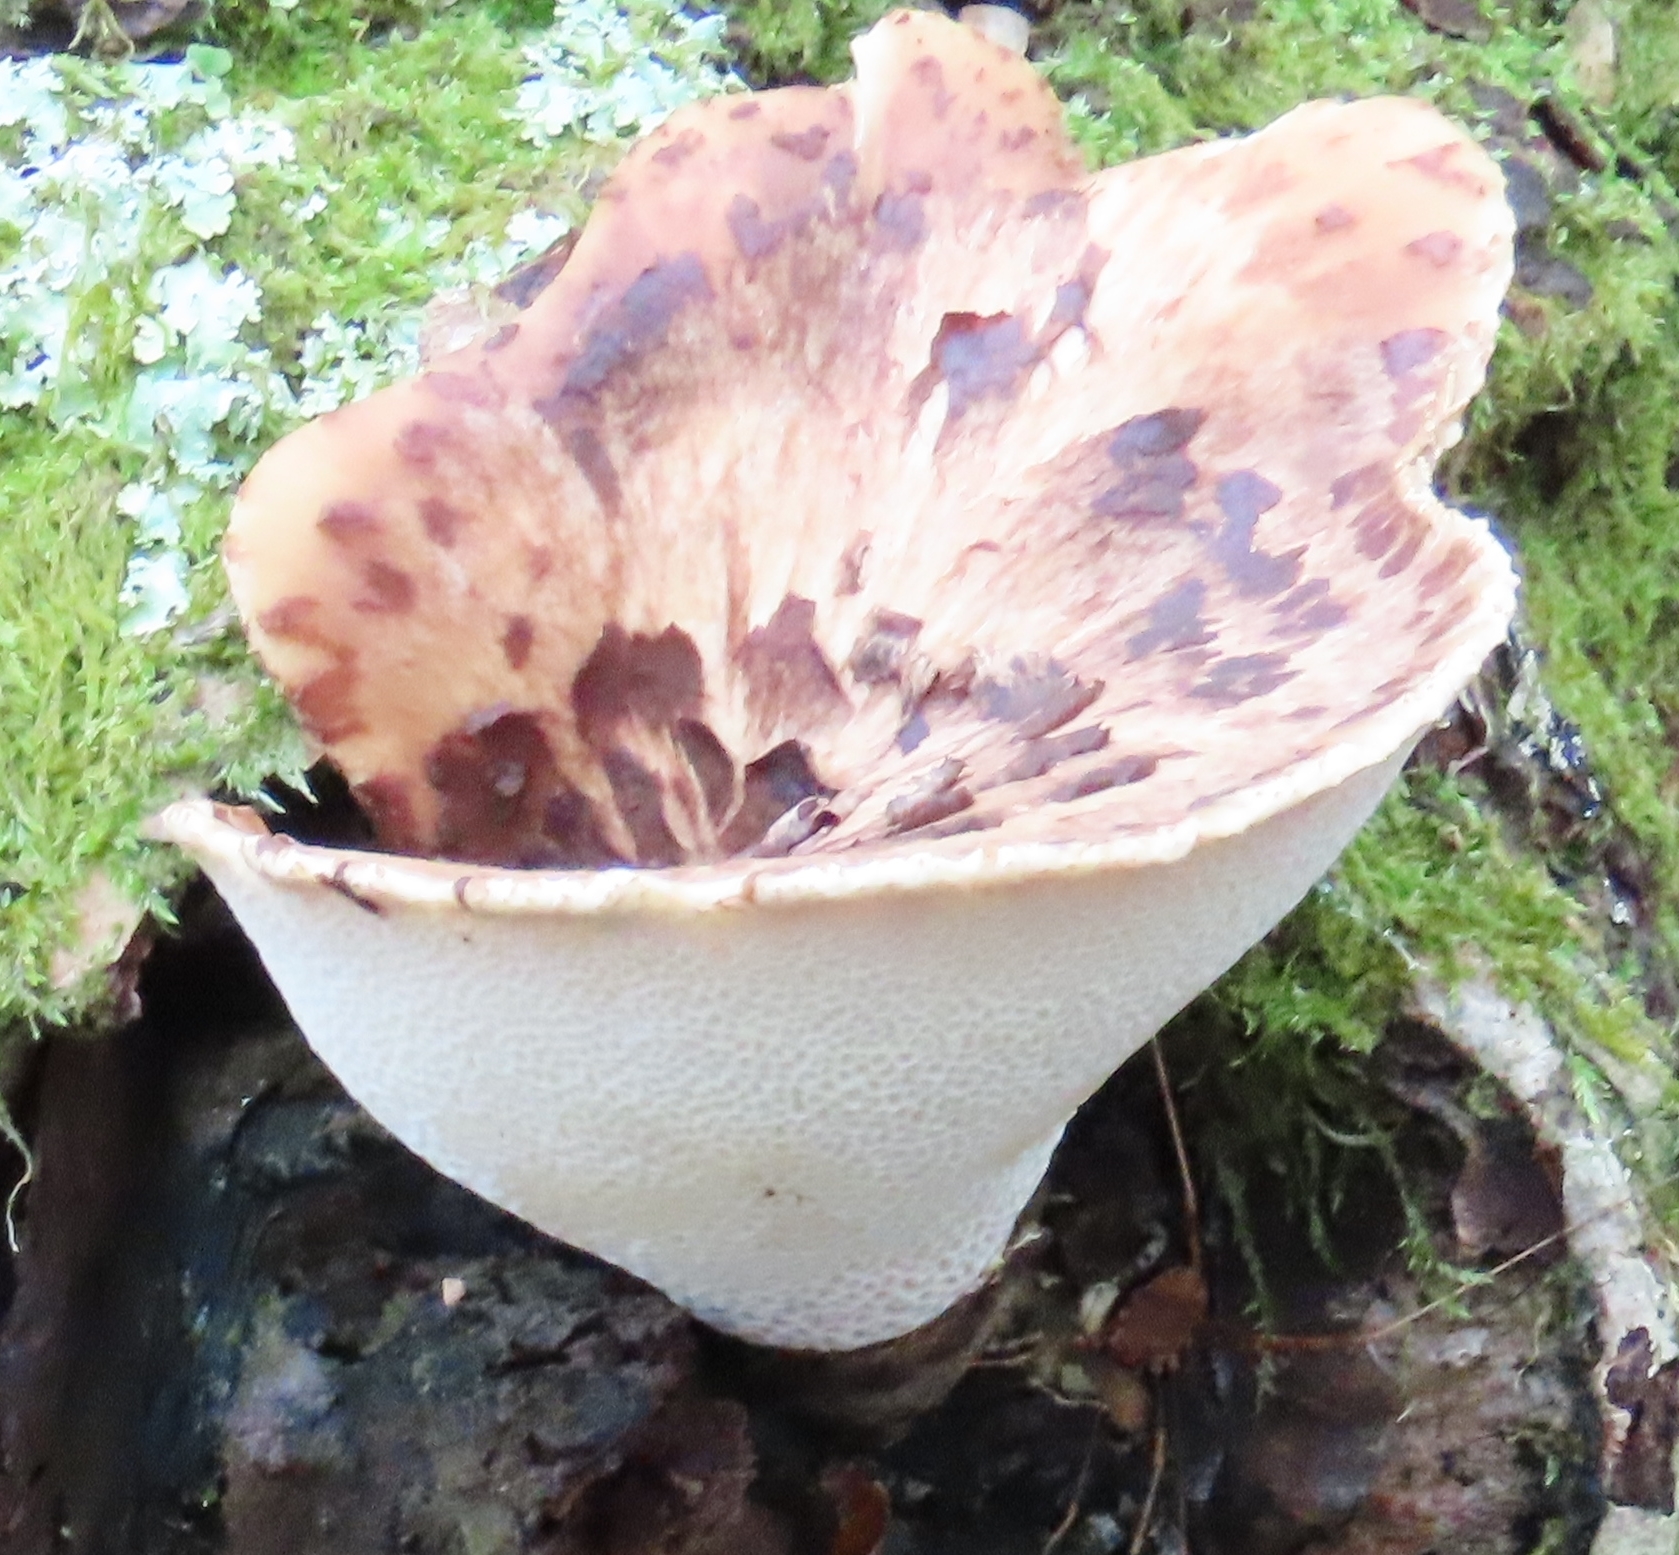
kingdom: Fungi
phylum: Basidiomycota
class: Agaricomycetes
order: Polyporales
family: Polyporaceae
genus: Cerioporus
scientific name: Cerioporus squamosus
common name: Dryad's saddle
